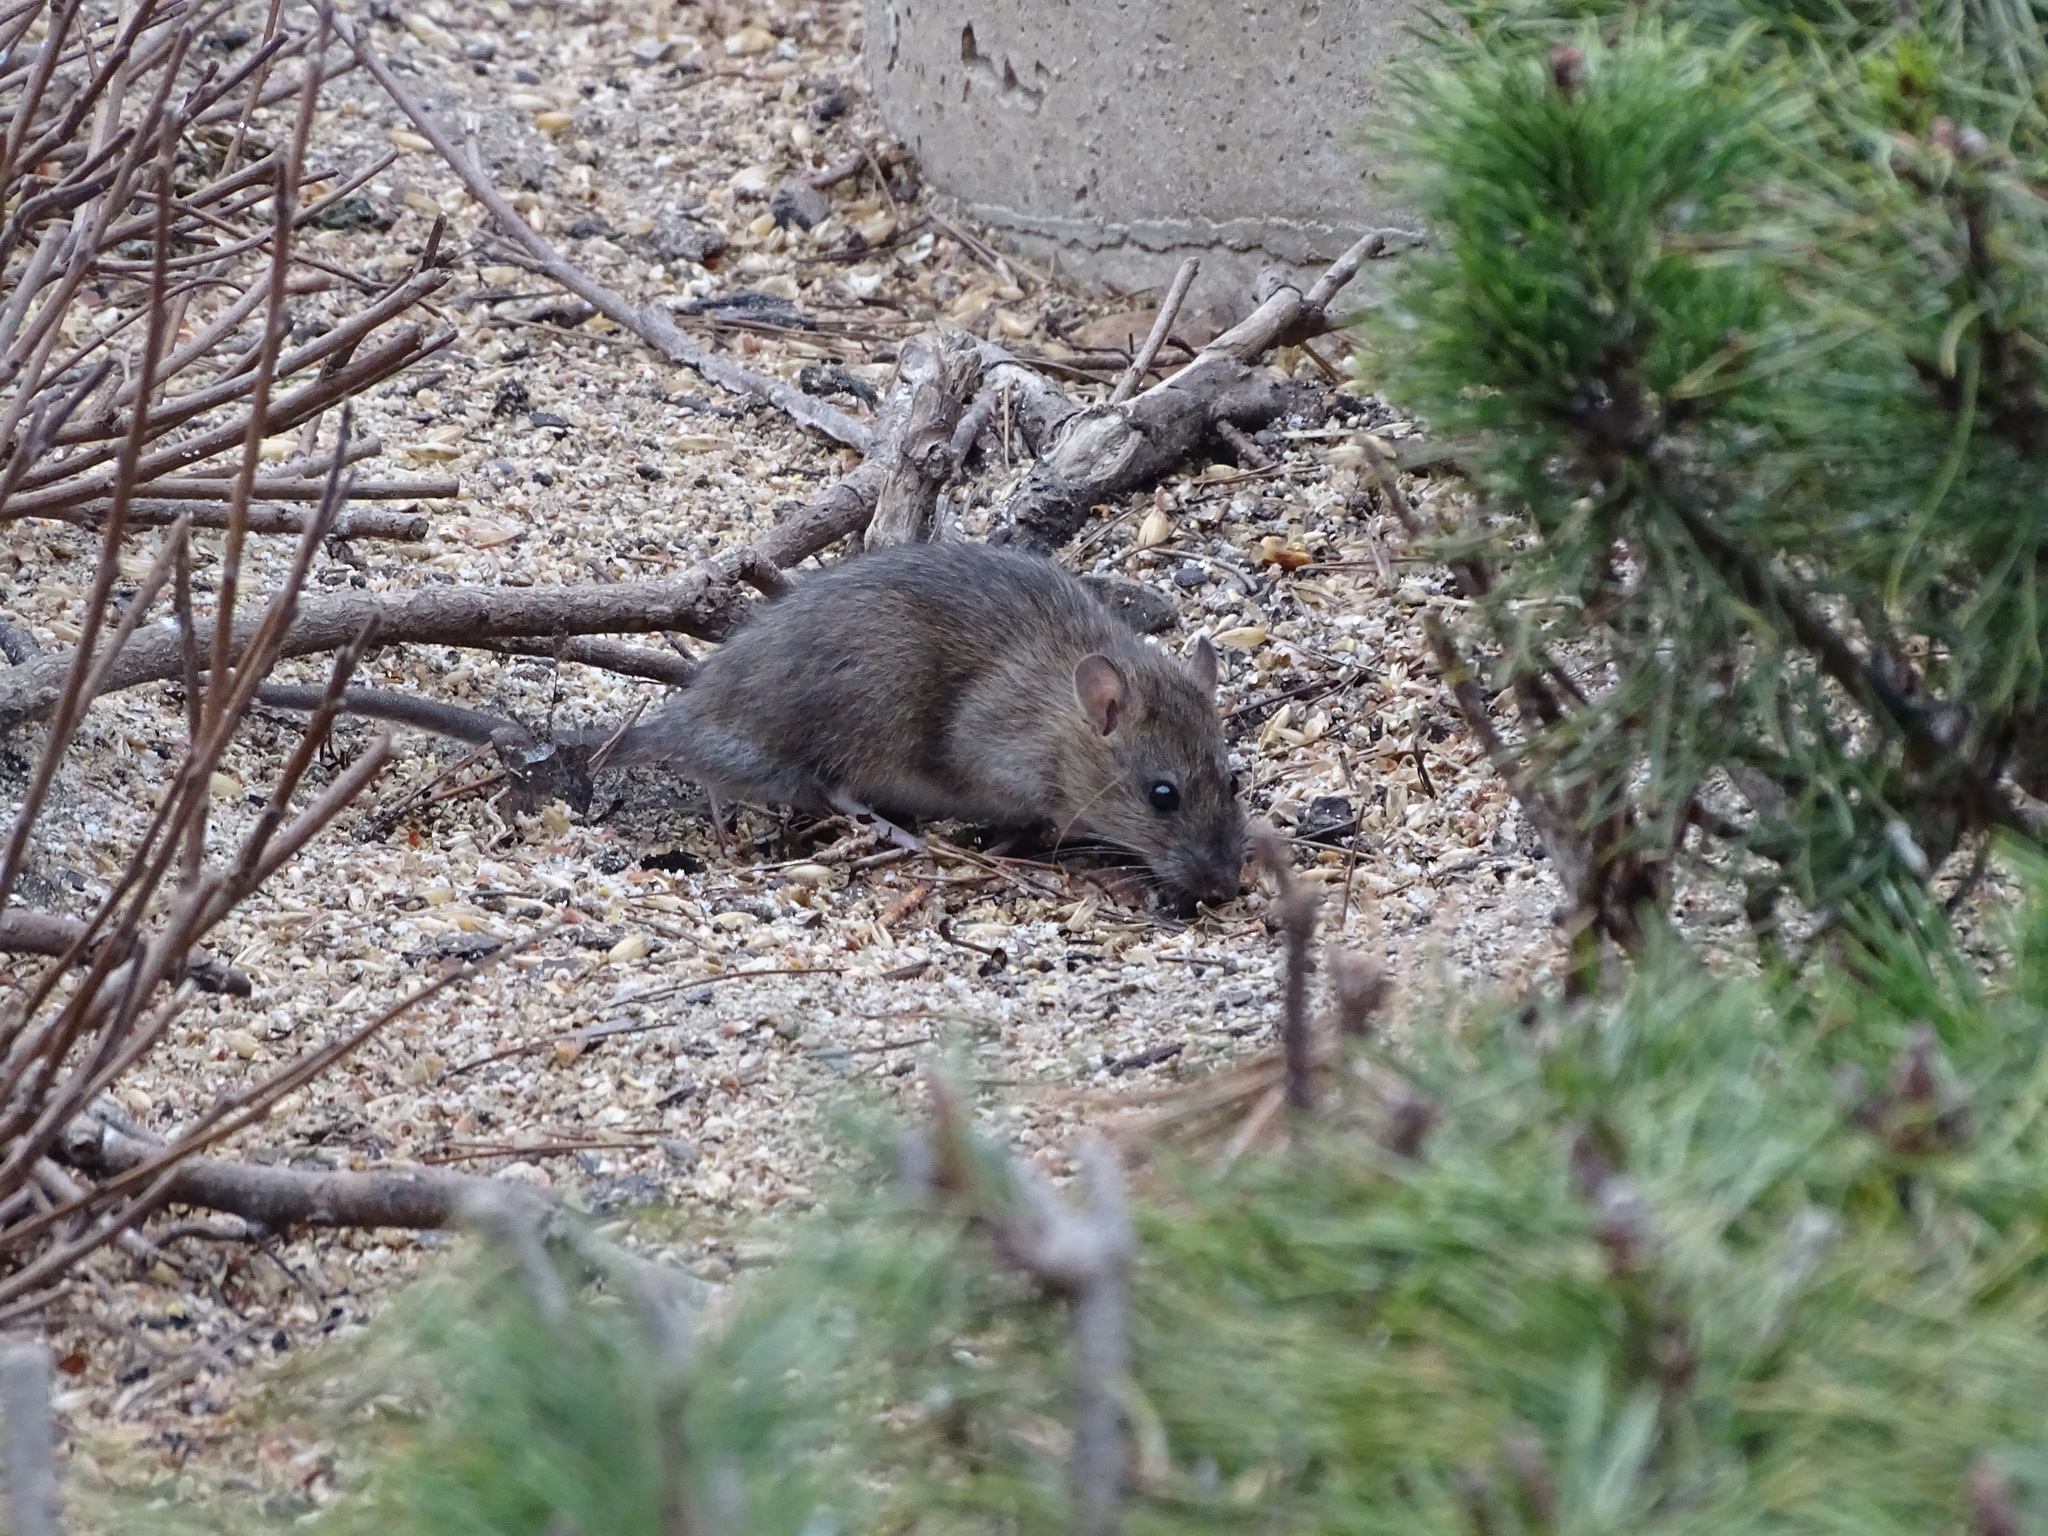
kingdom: Animalia
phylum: Chordata
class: Mammalia
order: Rodentia
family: Muridae
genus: Rattus
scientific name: Rattus norvegicus
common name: Brown rat
